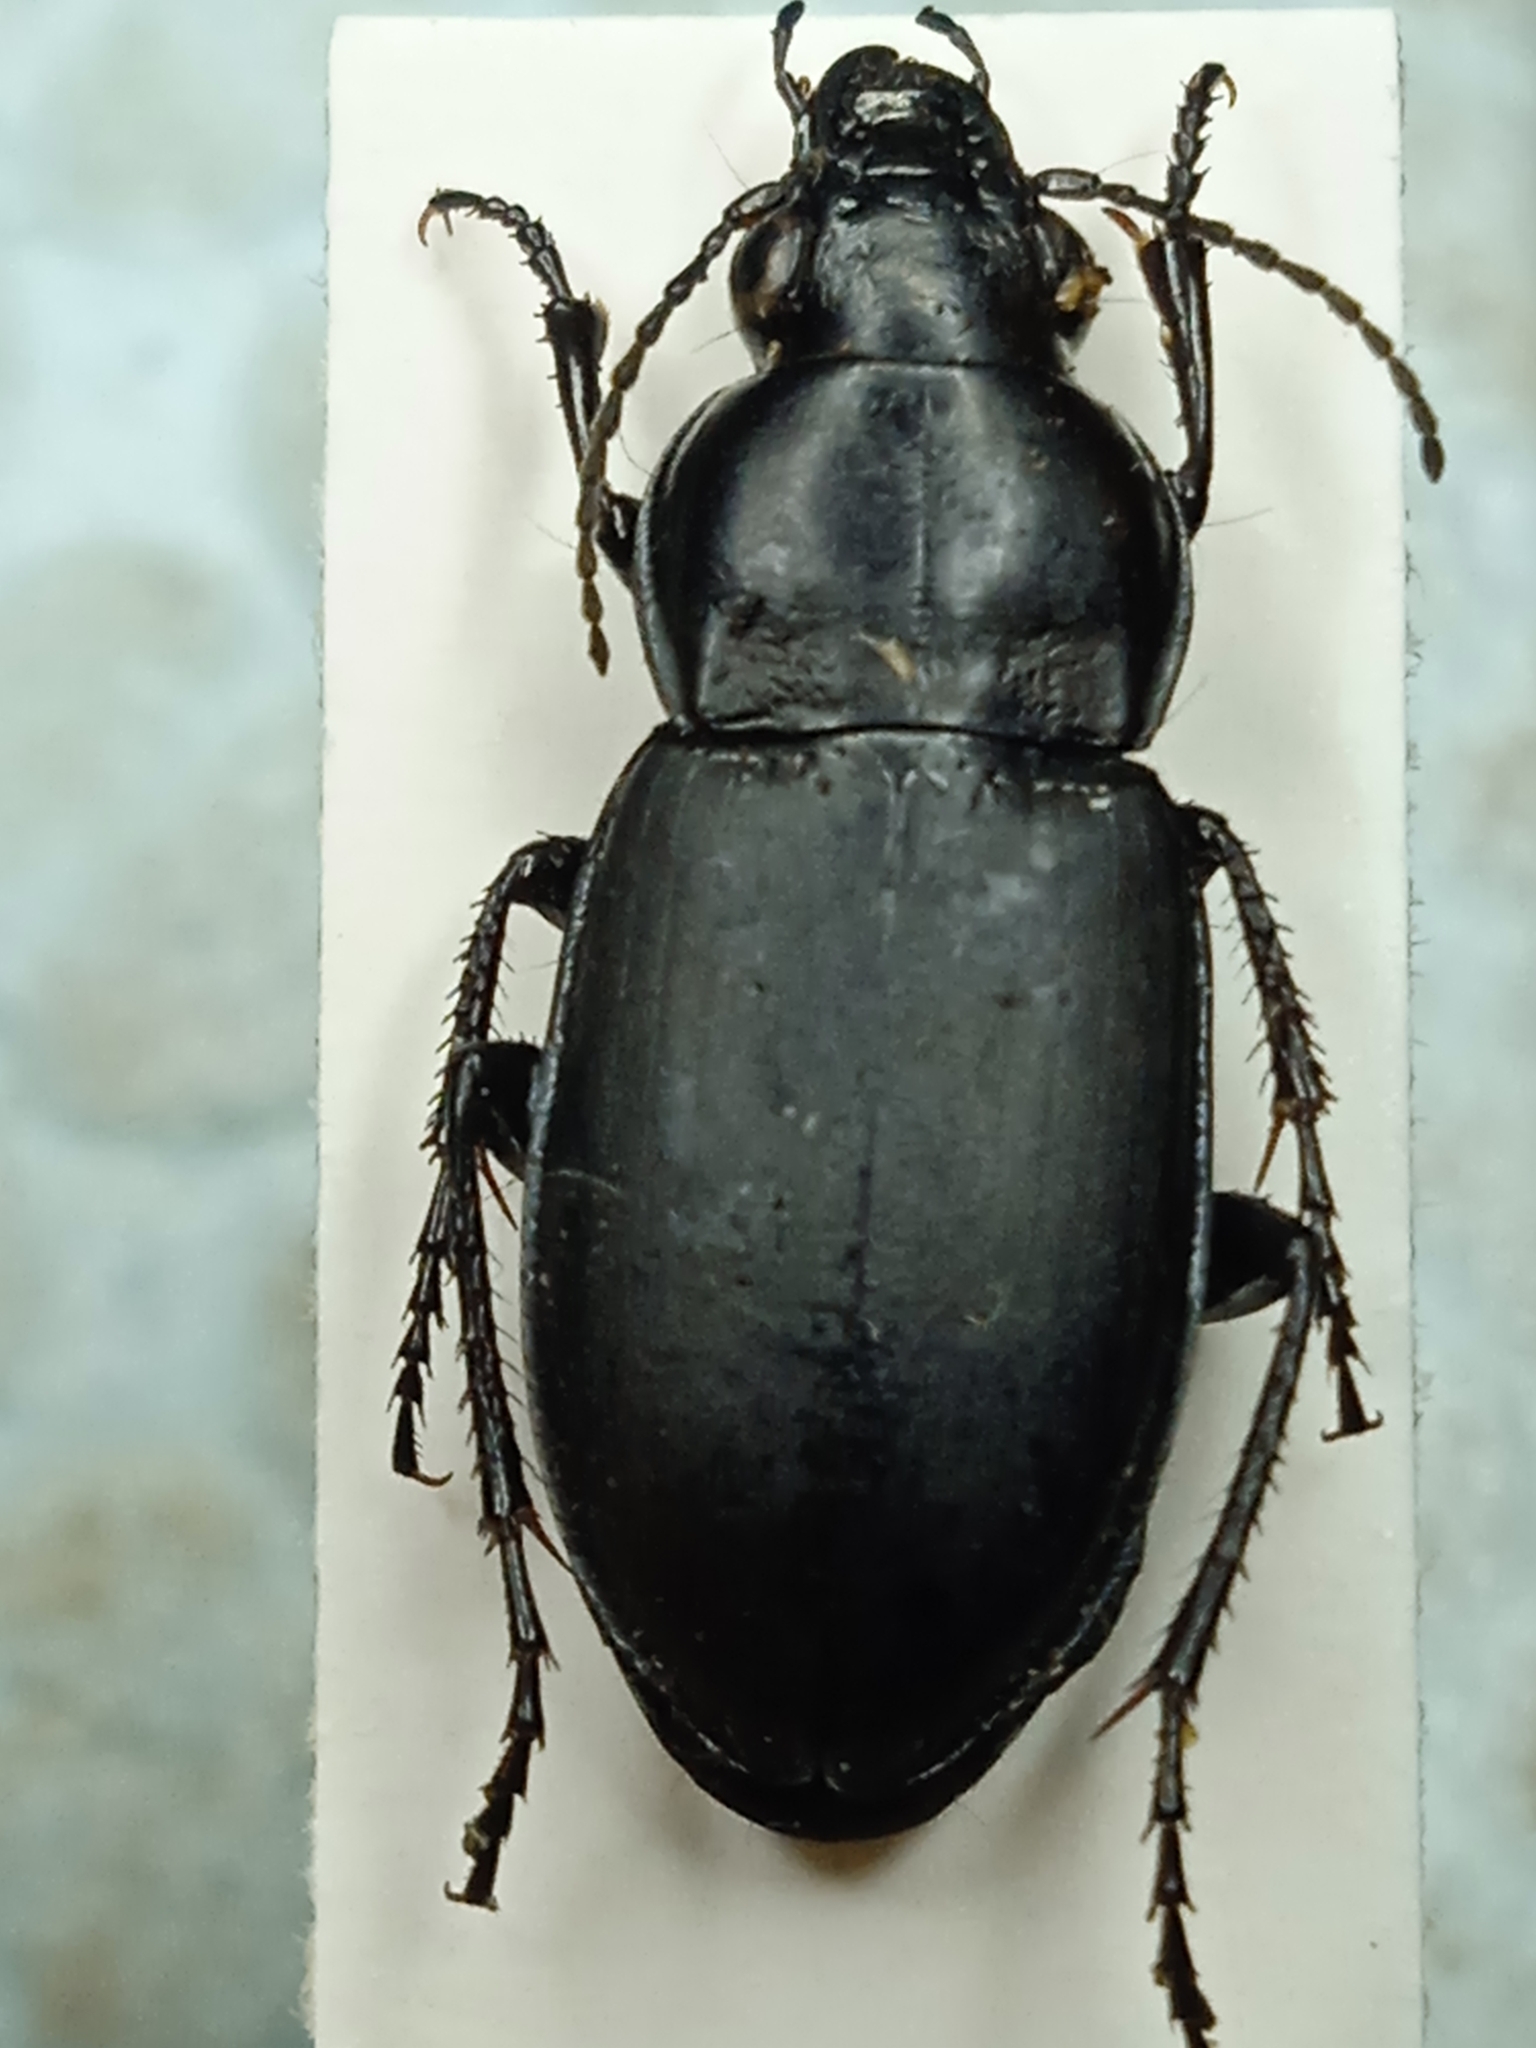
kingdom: Animalia
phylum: Arthropoda
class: Insecta
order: Coleoptera
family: Carabidae
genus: Poecilus
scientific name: Poecilus punctulatus
